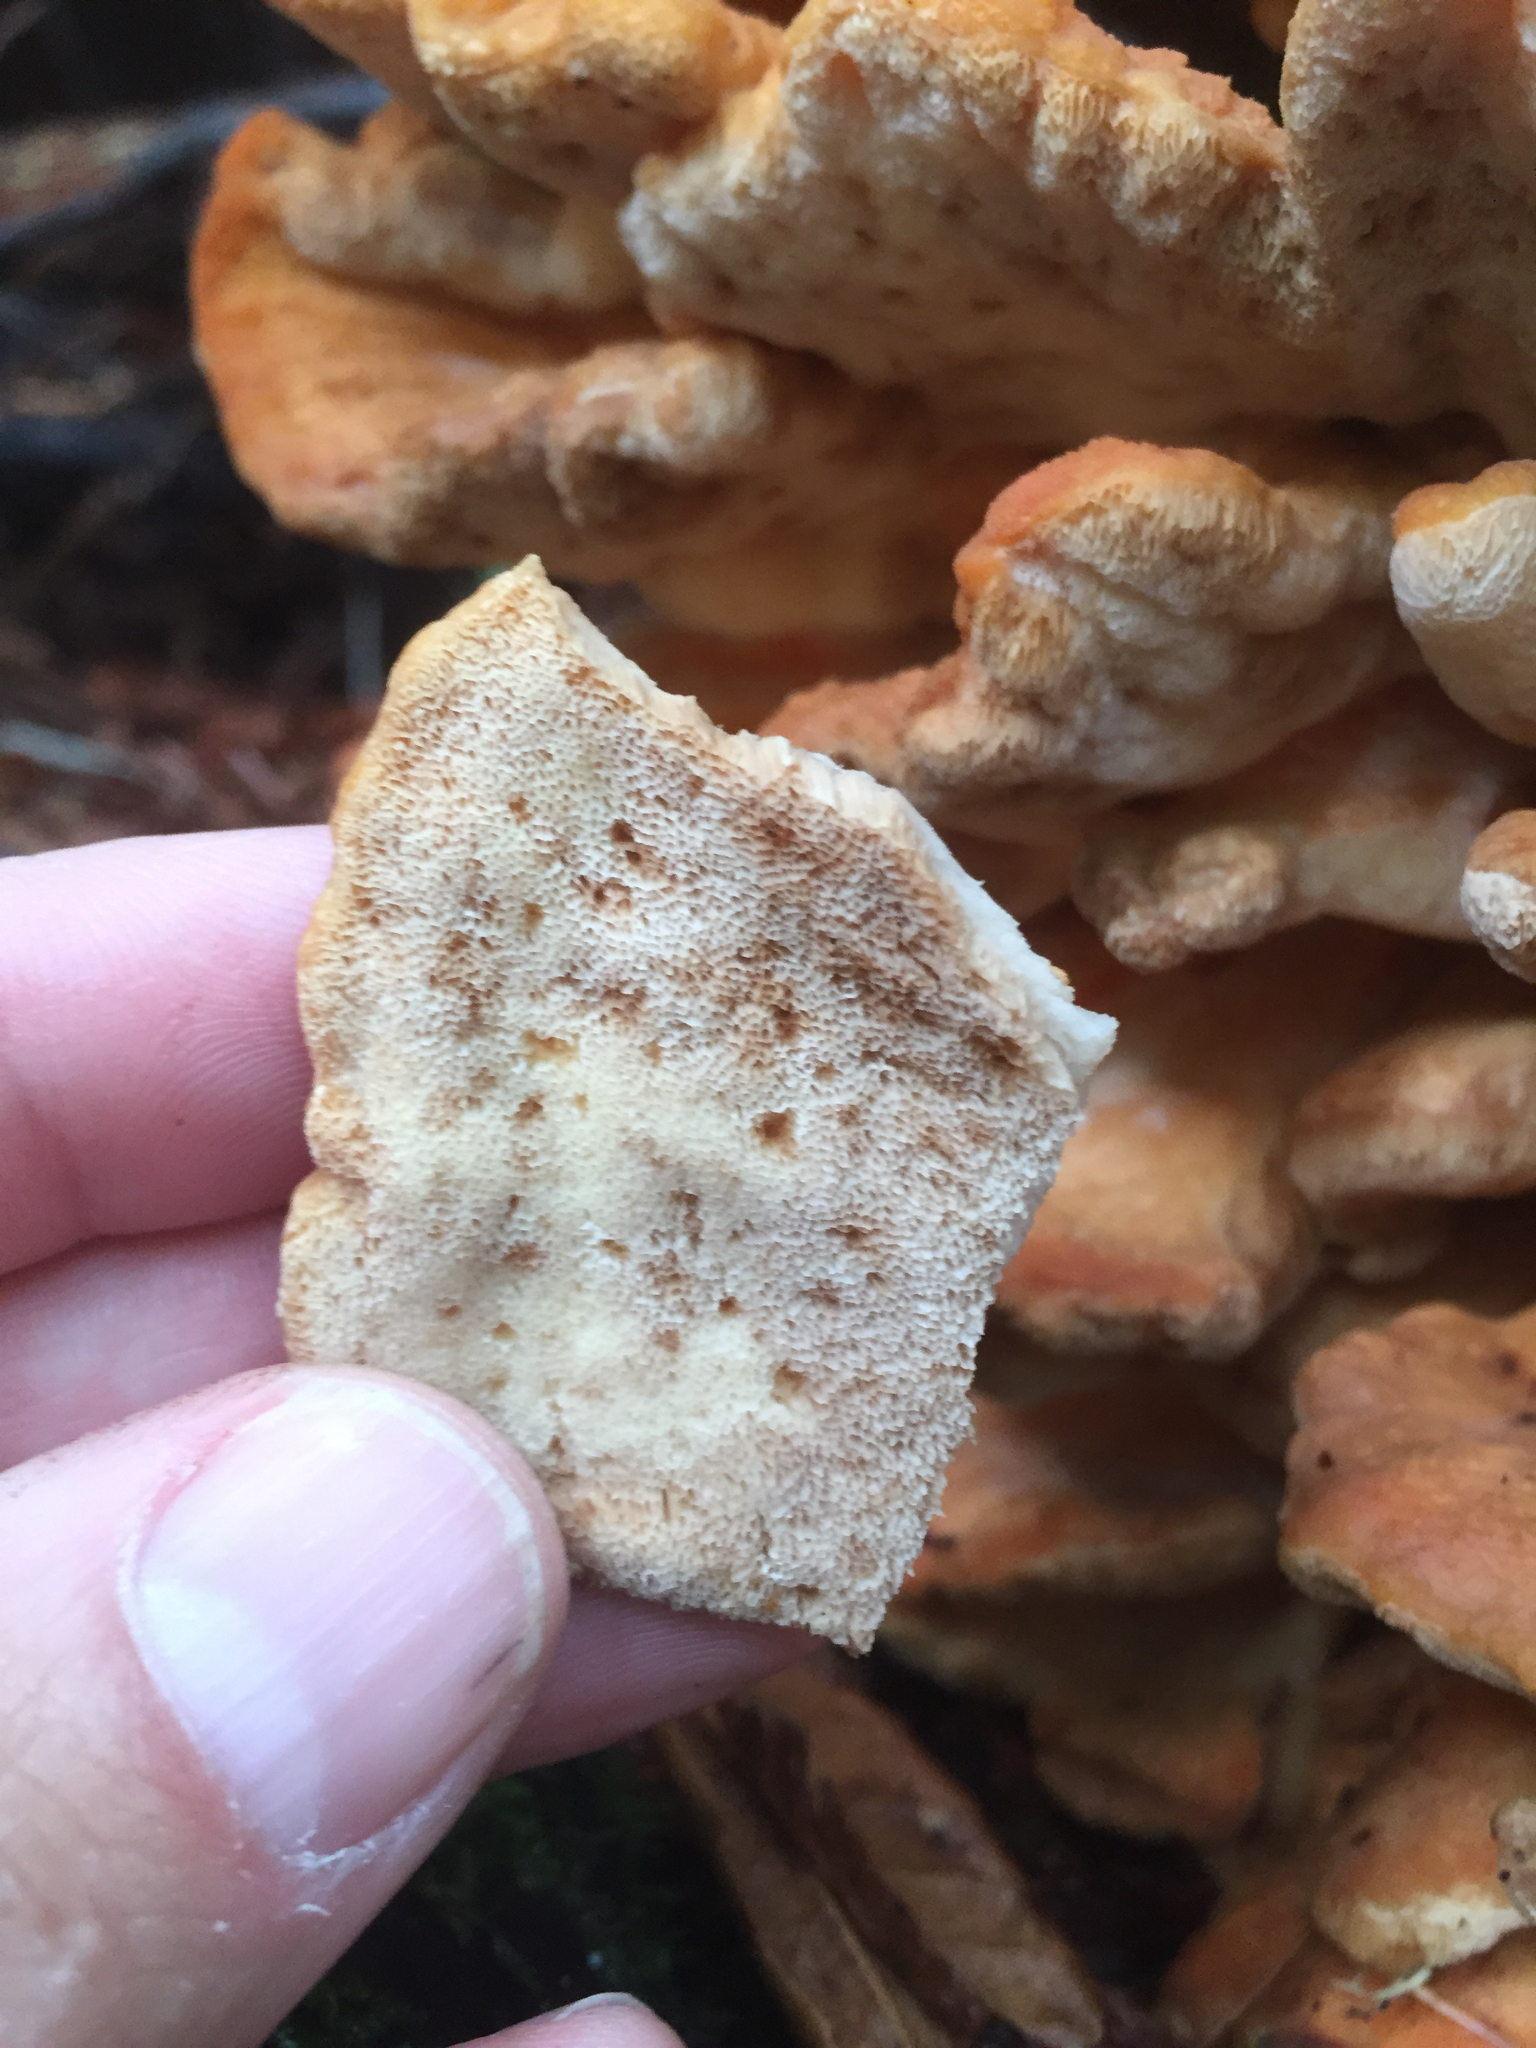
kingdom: Fungi
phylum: Basidiomycota
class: Agaricomycetes
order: Polyporales
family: Laetiporaceae
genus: Laetiporus
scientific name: Laetiporus conifericola
